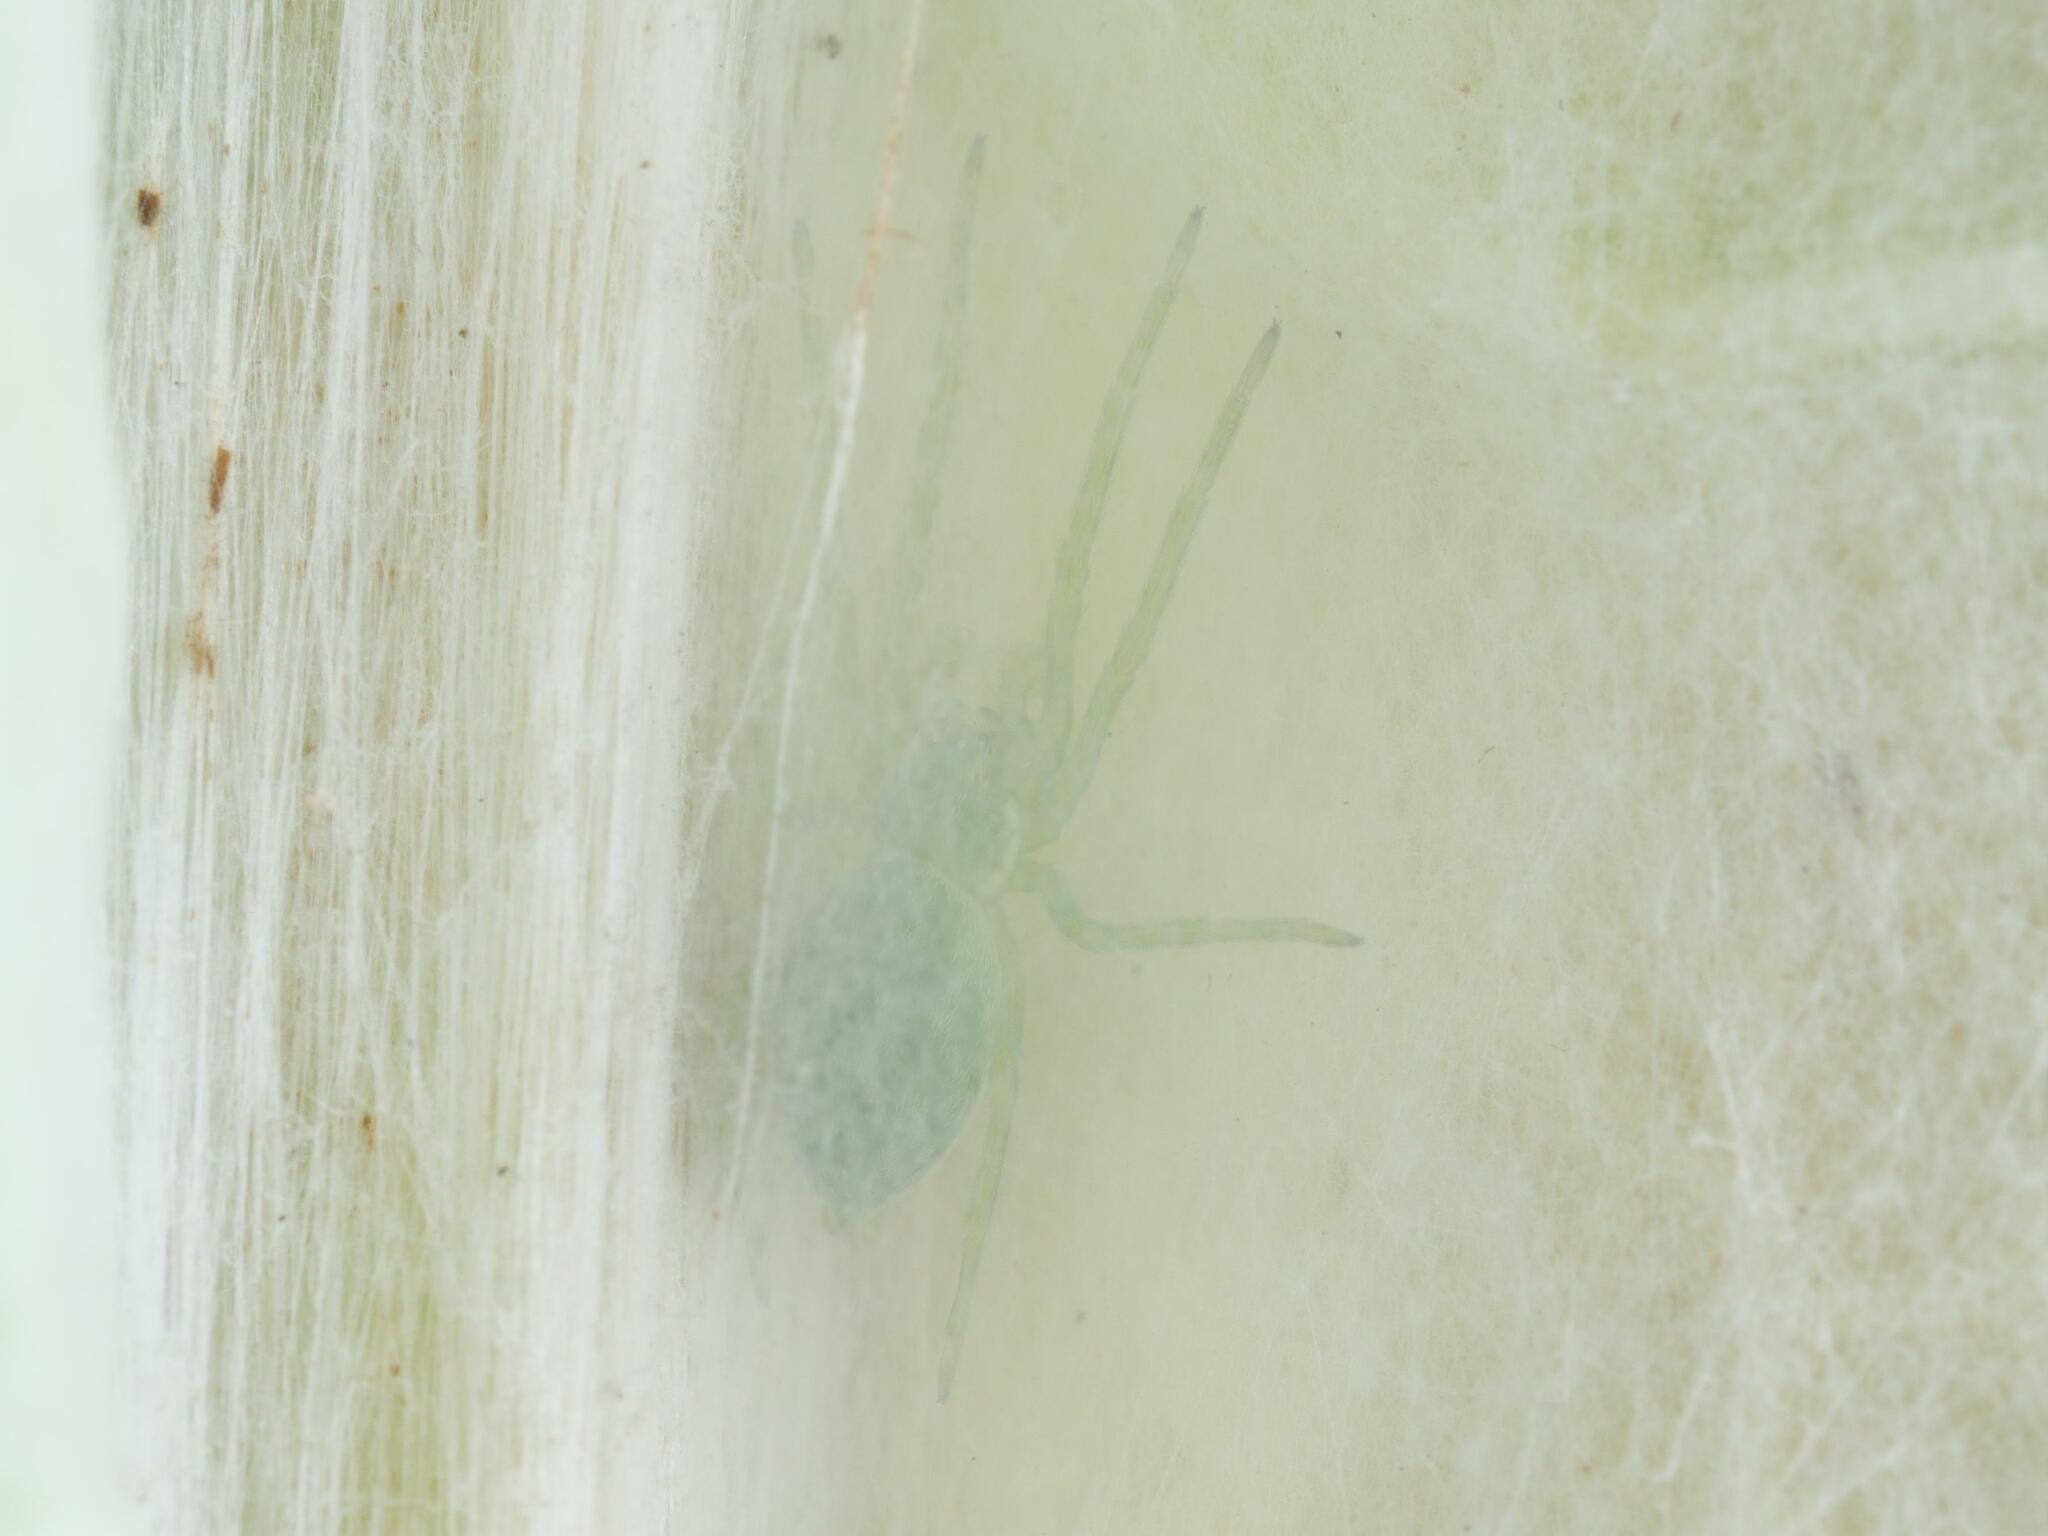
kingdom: Animalia
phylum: Arthropoda
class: Arachnida
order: Araneae
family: Dictynidae
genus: Nigma
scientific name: Nigma walckenaeri
